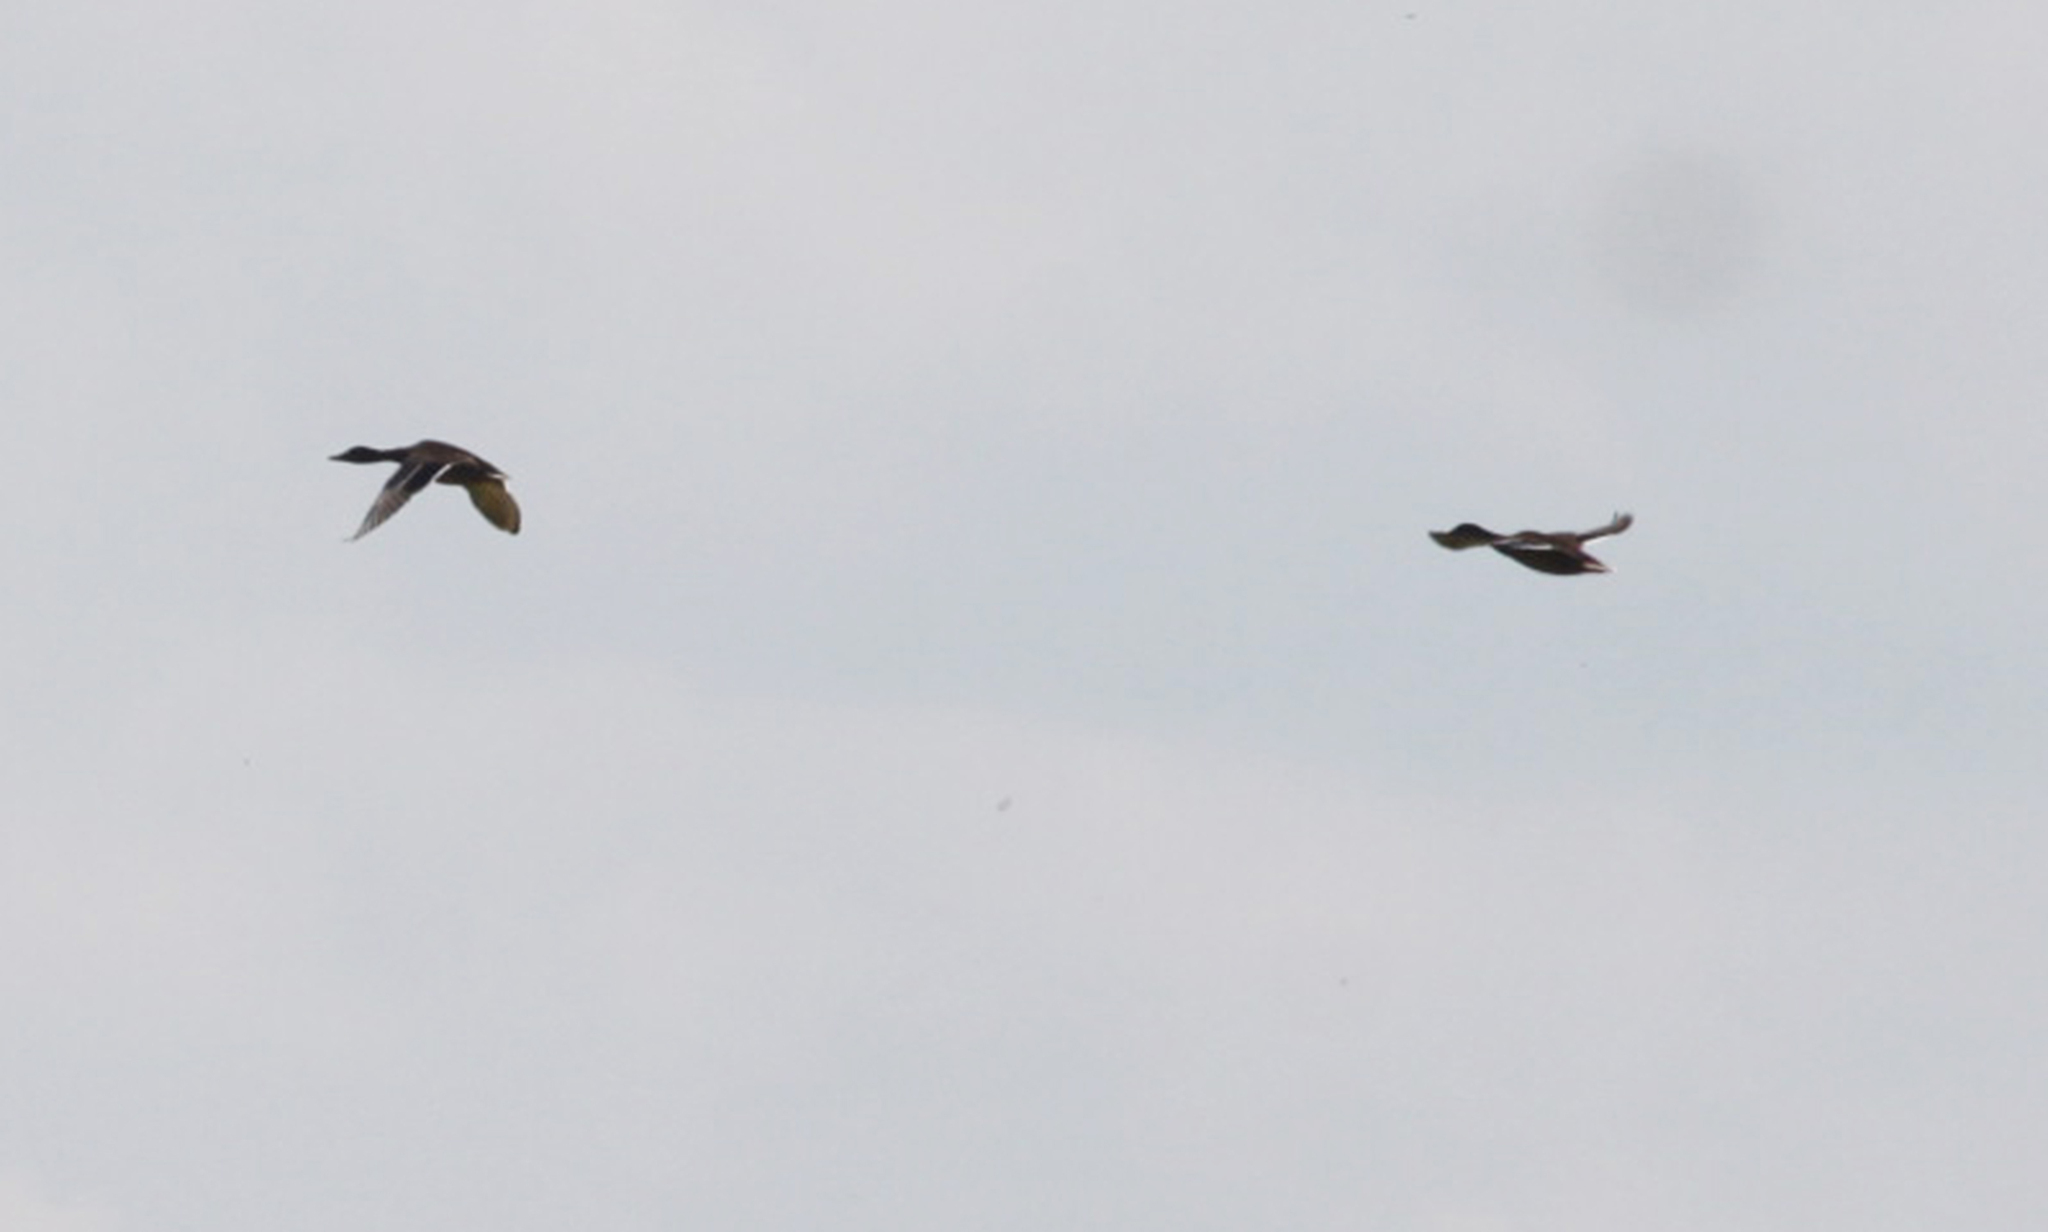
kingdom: Animalia
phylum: Chordata
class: Aves
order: Anseriformes
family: Anatidae
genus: Anas
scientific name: Anas platyrhynchos
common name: Mallard
